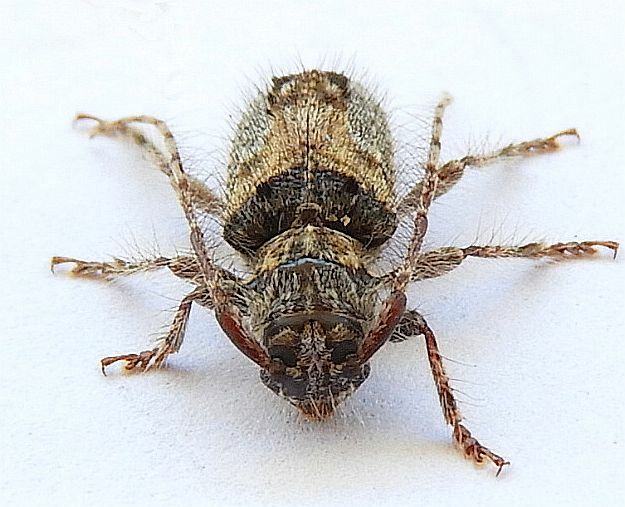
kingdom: Animalia
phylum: Arthropoda
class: Insecta
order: Coleoptera
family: Cerambycidae
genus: Poliaenus
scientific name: Poliaenus negundo
